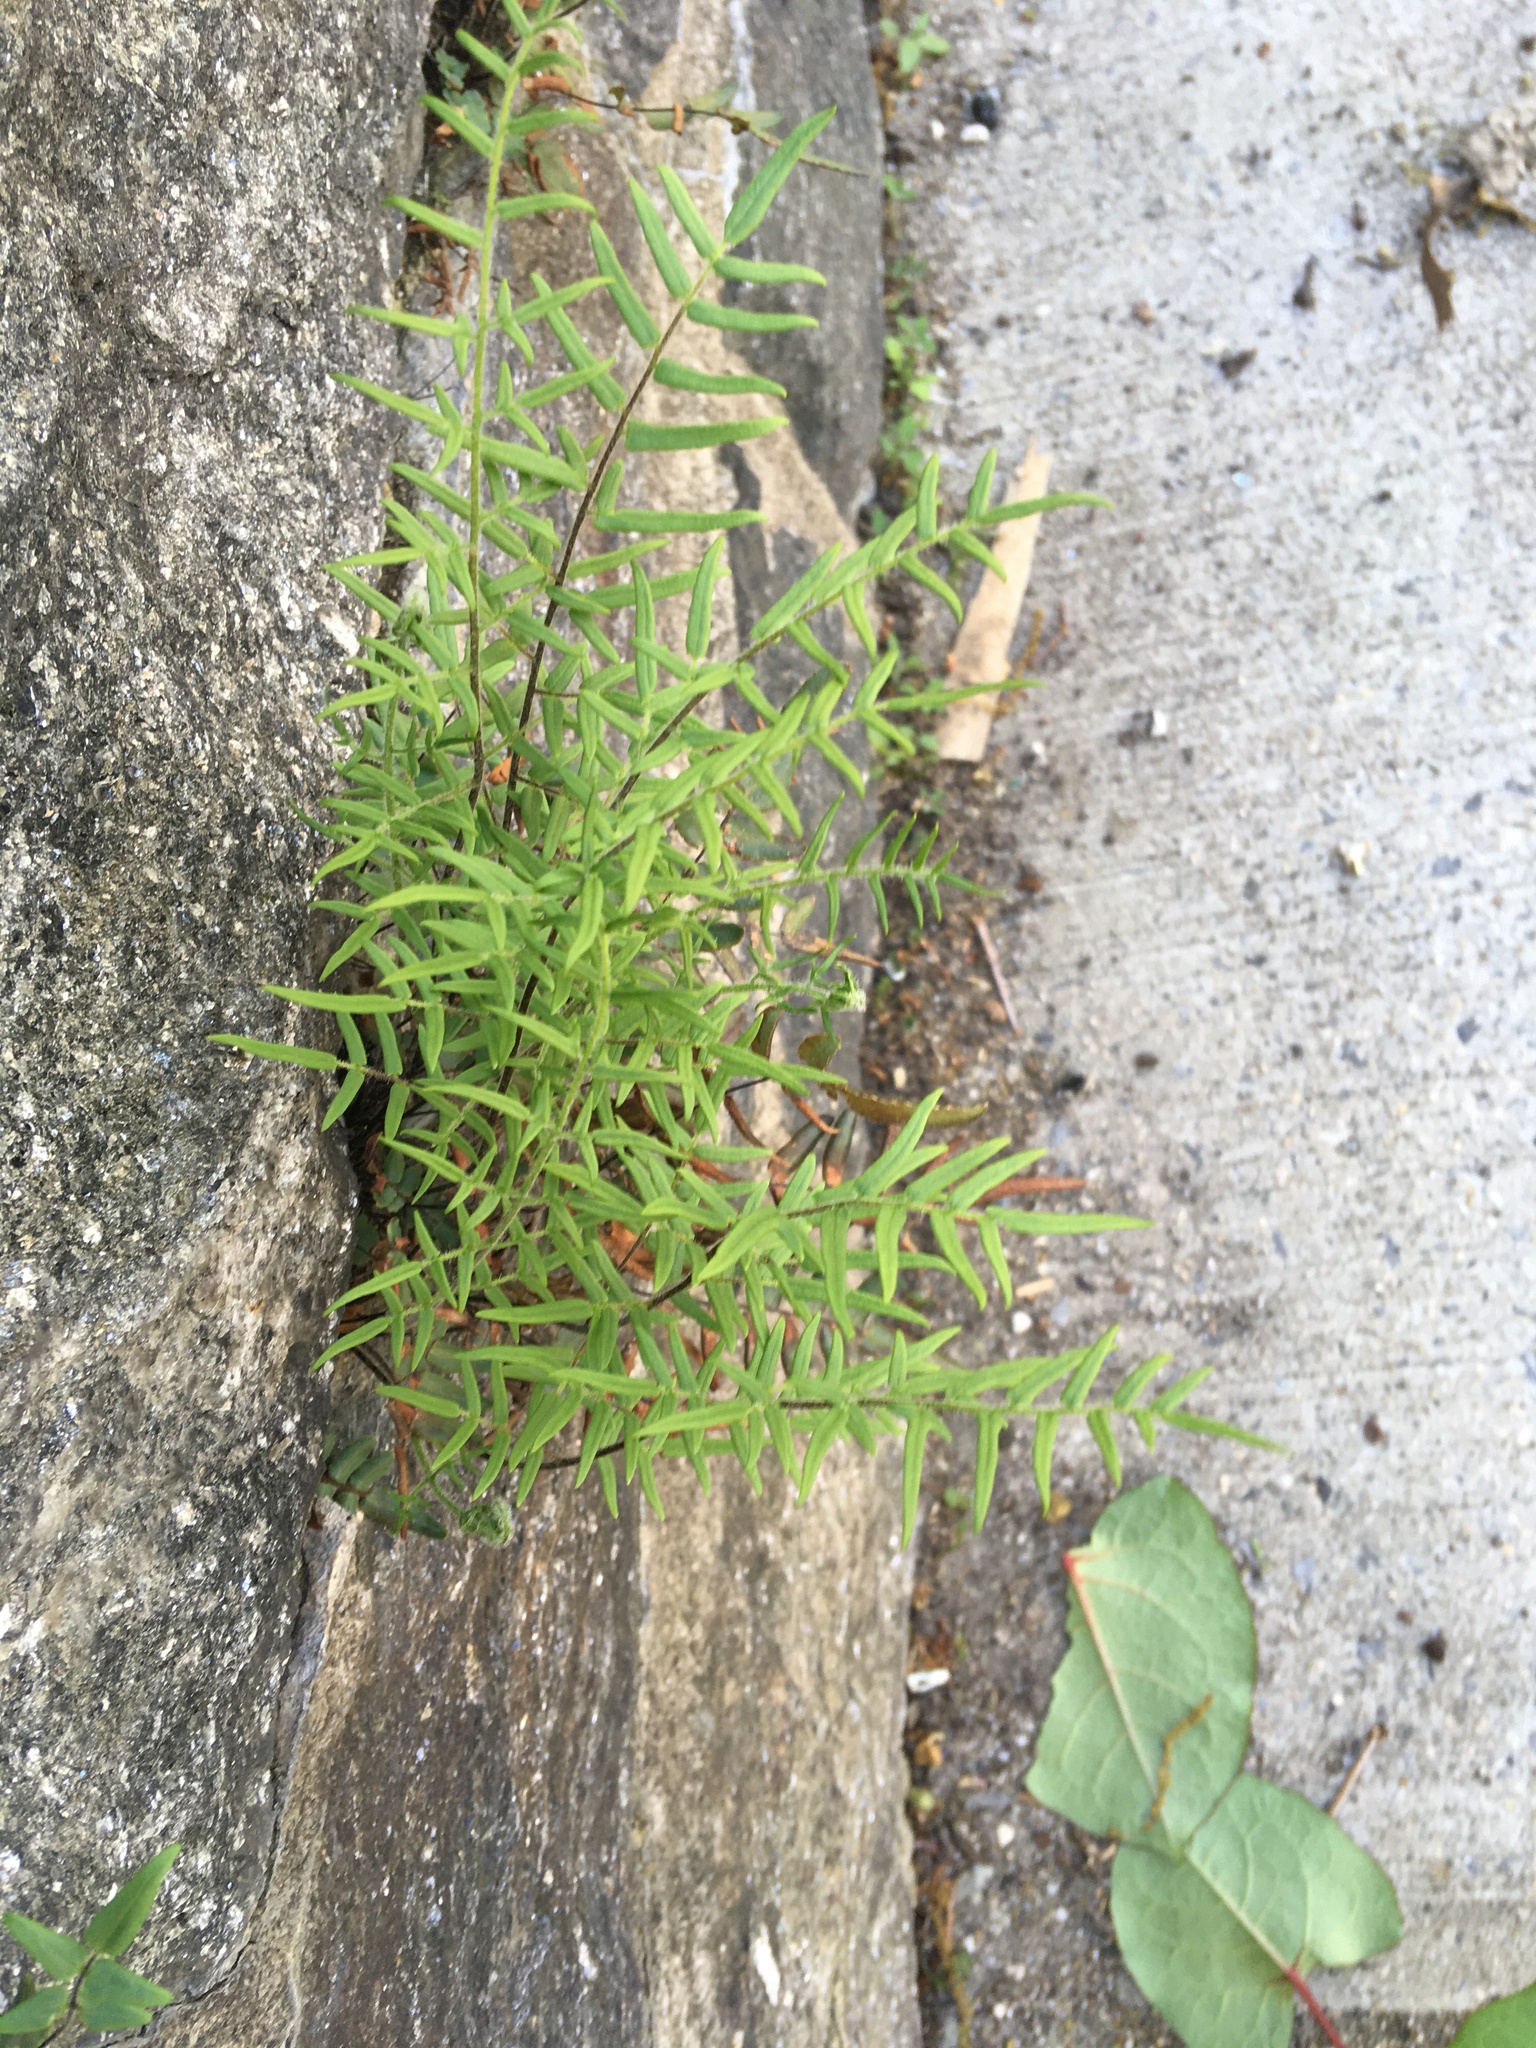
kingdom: Plantae
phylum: Tracheophyta
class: Polypodiopsida
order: Polypodiales
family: Pteridaceae
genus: Pellaea
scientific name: Pellaea atropurpurea
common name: Hairy cliffbrake
